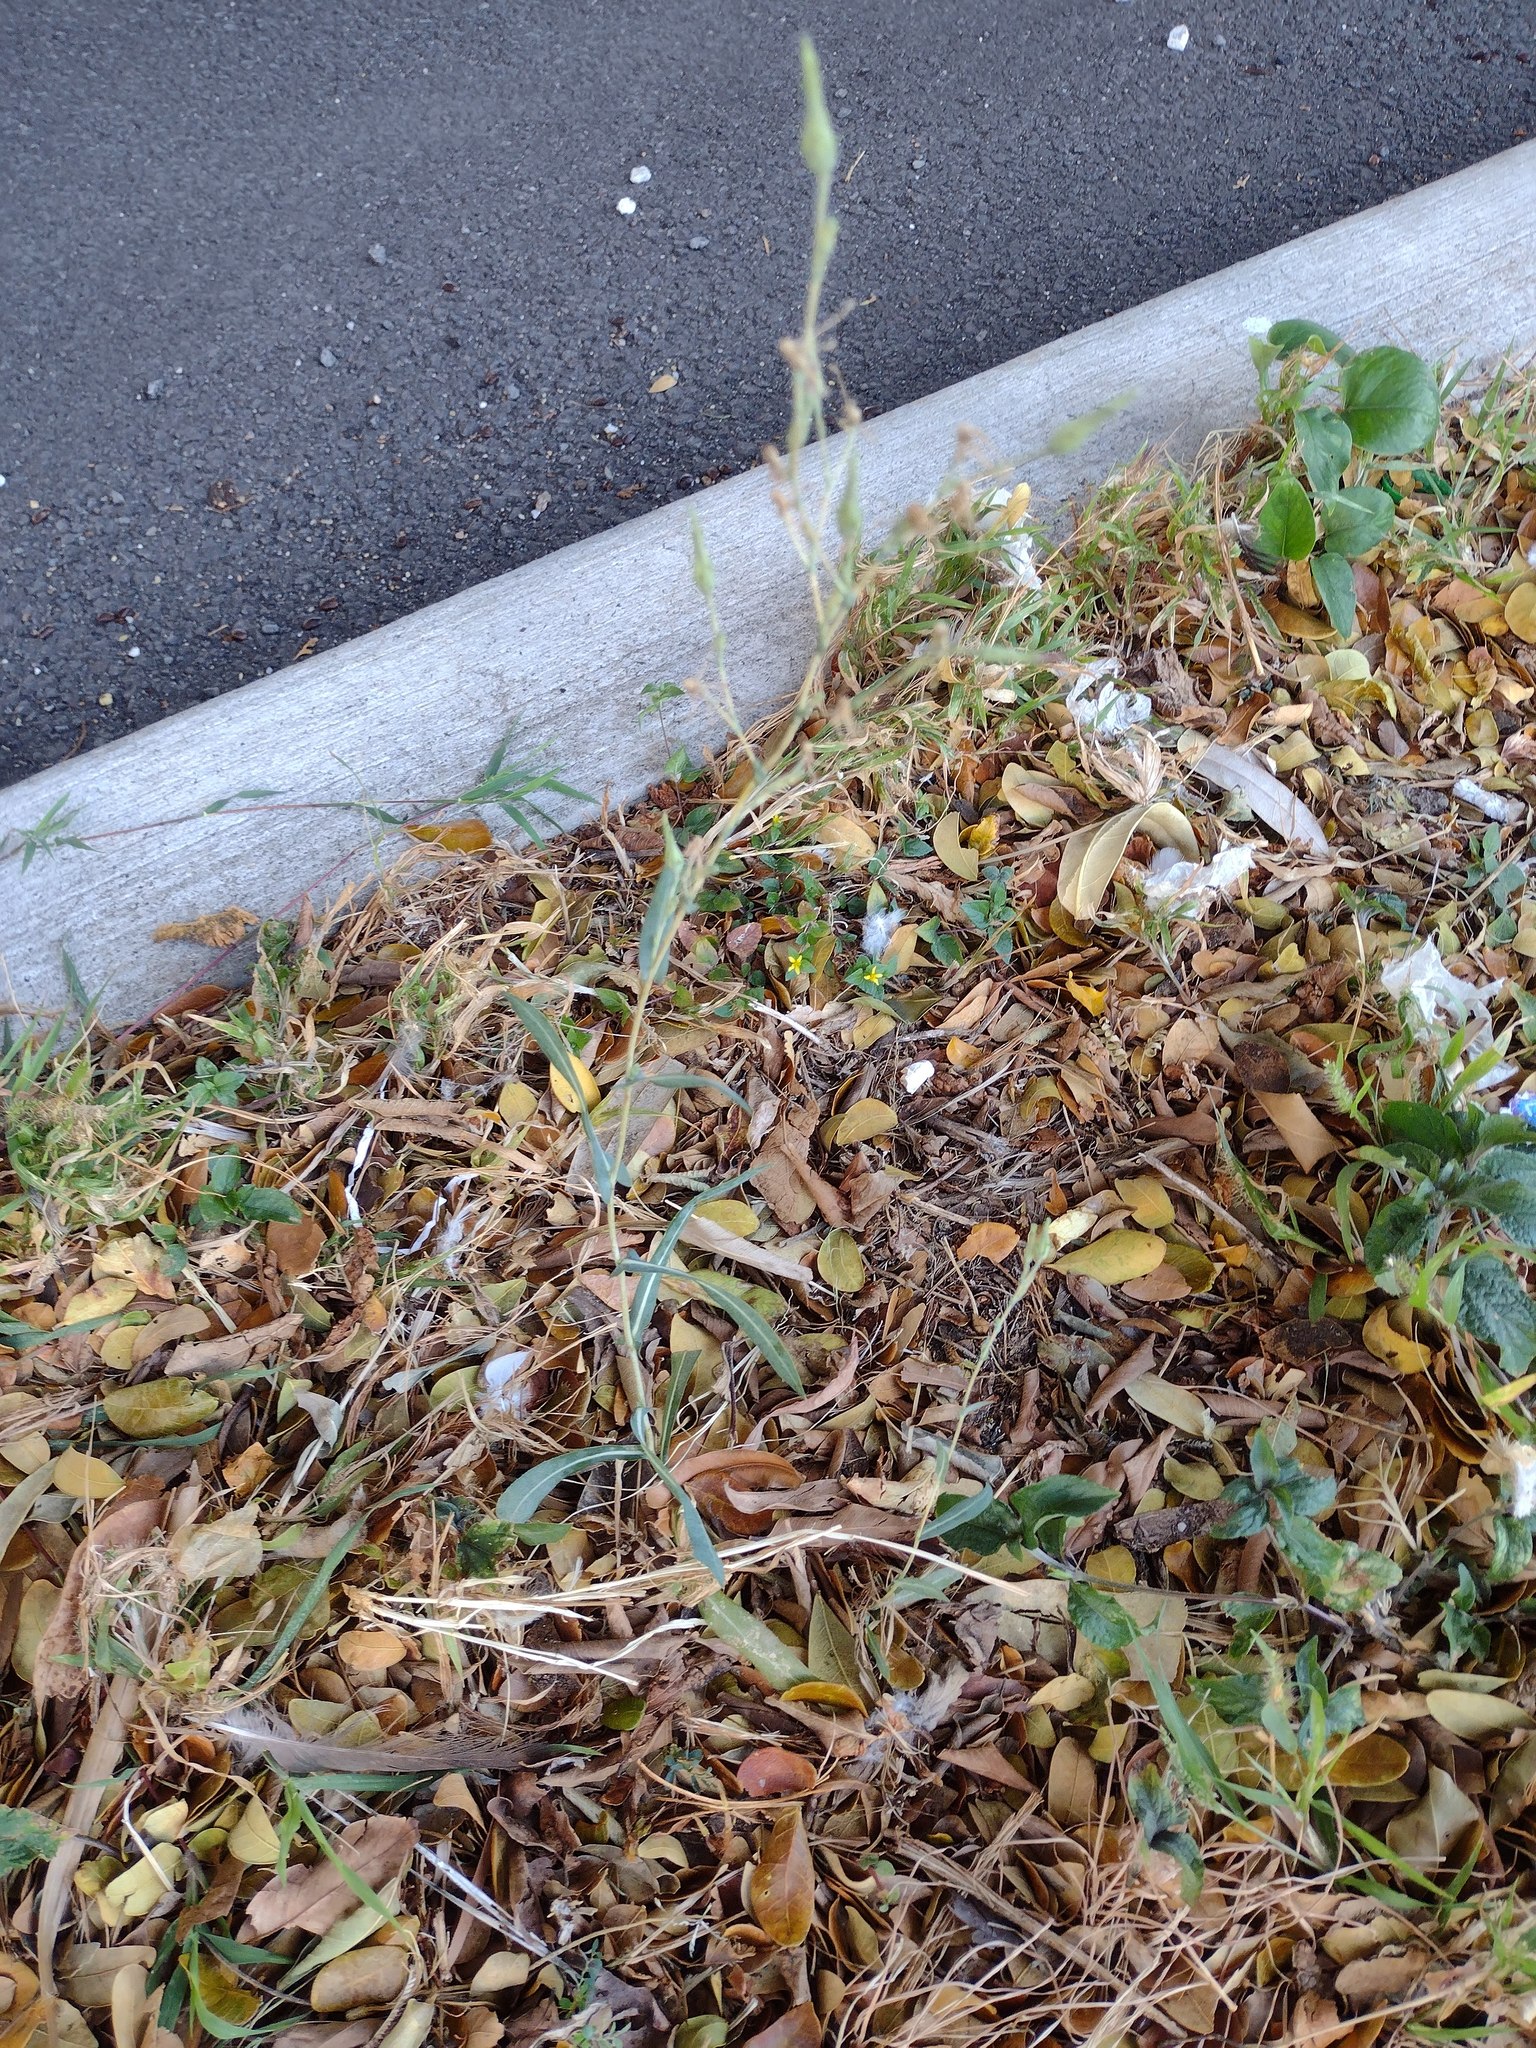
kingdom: Plantae
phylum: Tracheophyta
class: Magnoliopsida
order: Asterales
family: Asteraceae
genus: Lactuca
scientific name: Lactuca serriola
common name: Prickly lettuce
